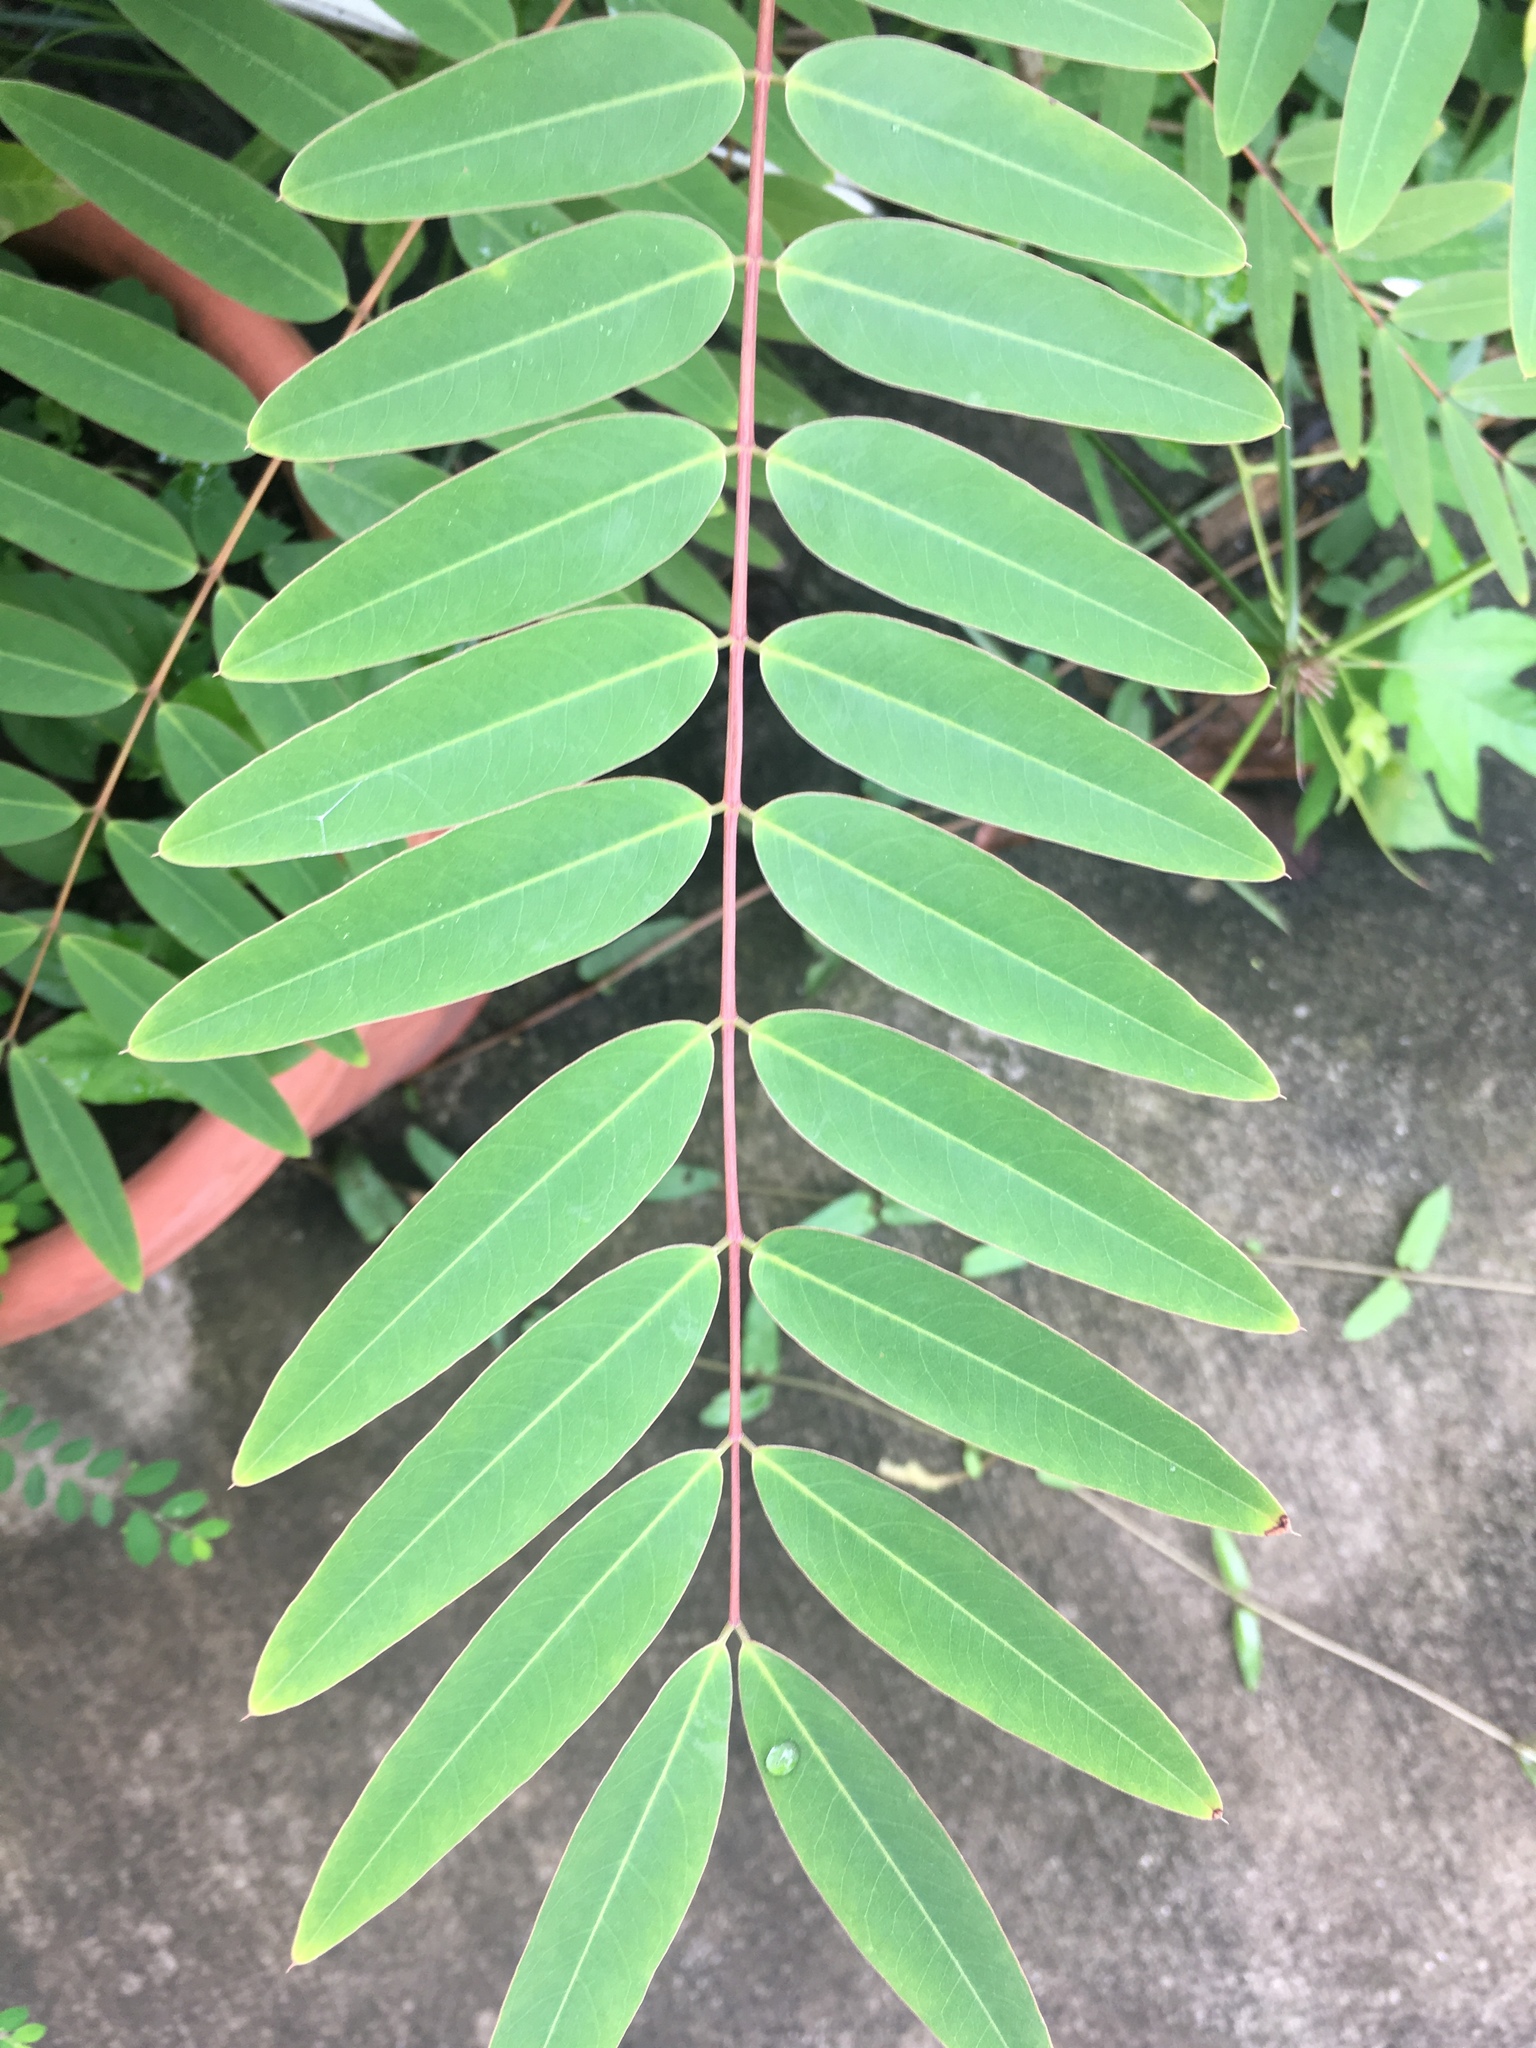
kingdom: Plantae
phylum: Tracheophyta
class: Magnoliopsida
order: Fabales
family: Fabaceae
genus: Senna
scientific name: Senna siamea
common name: Siamese cassia
